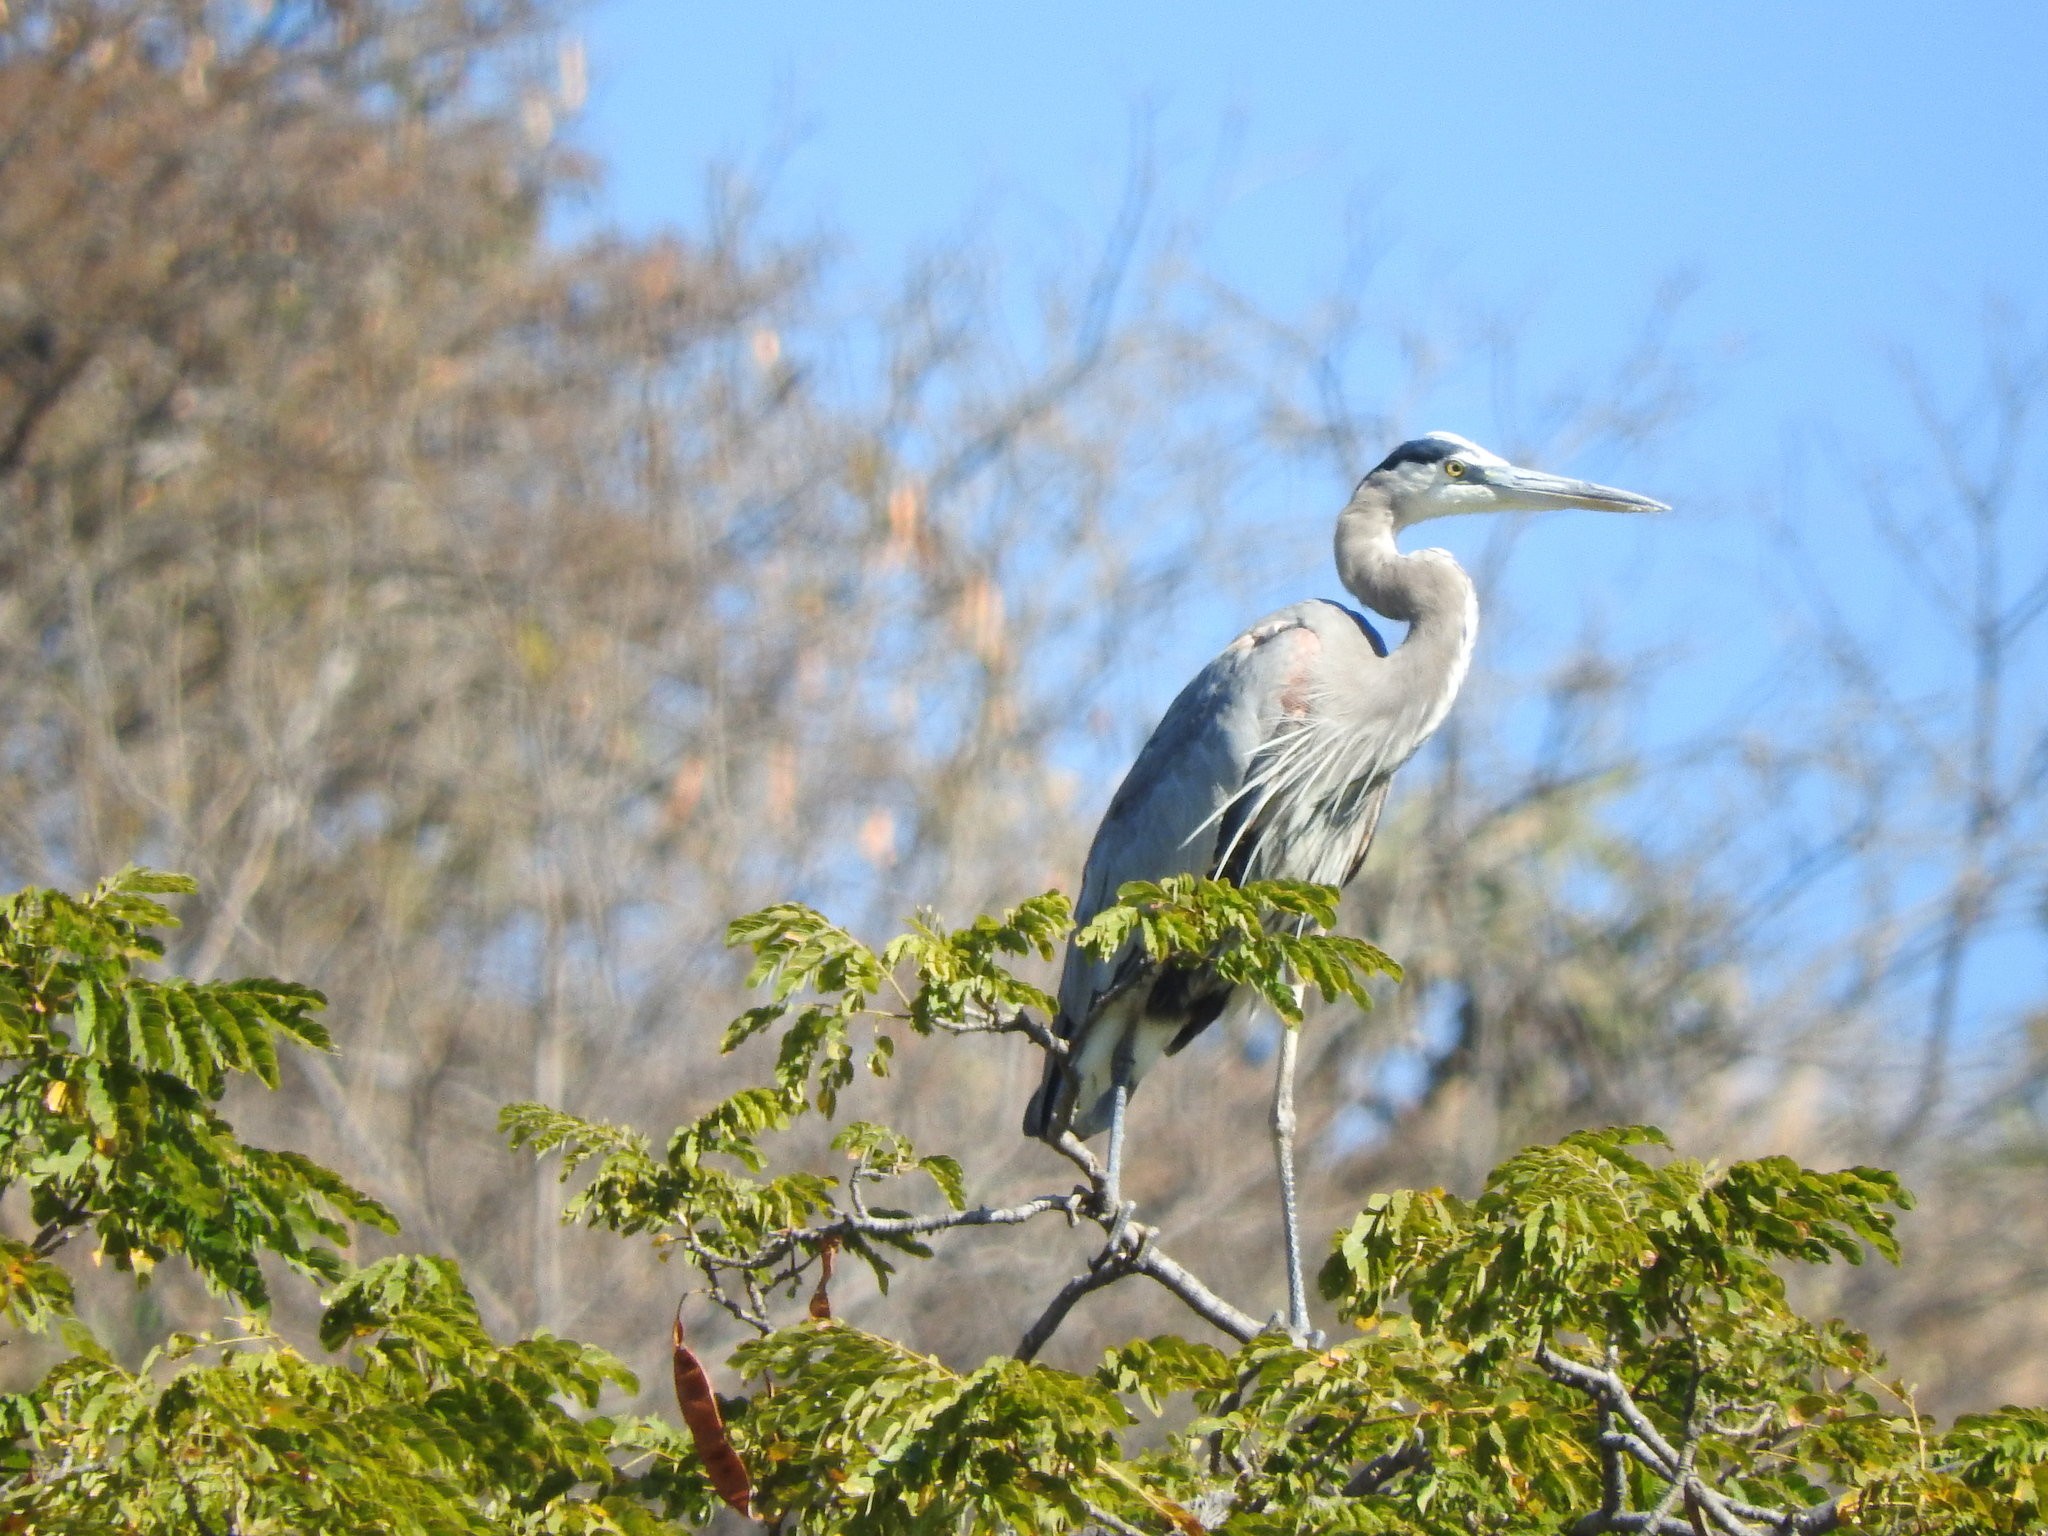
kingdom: Animalia
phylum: Chordata
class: Aves
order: Pelecaniformes
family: Ardeidae
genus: Ardea
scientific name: Ardea herodias
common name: Great blue heron
